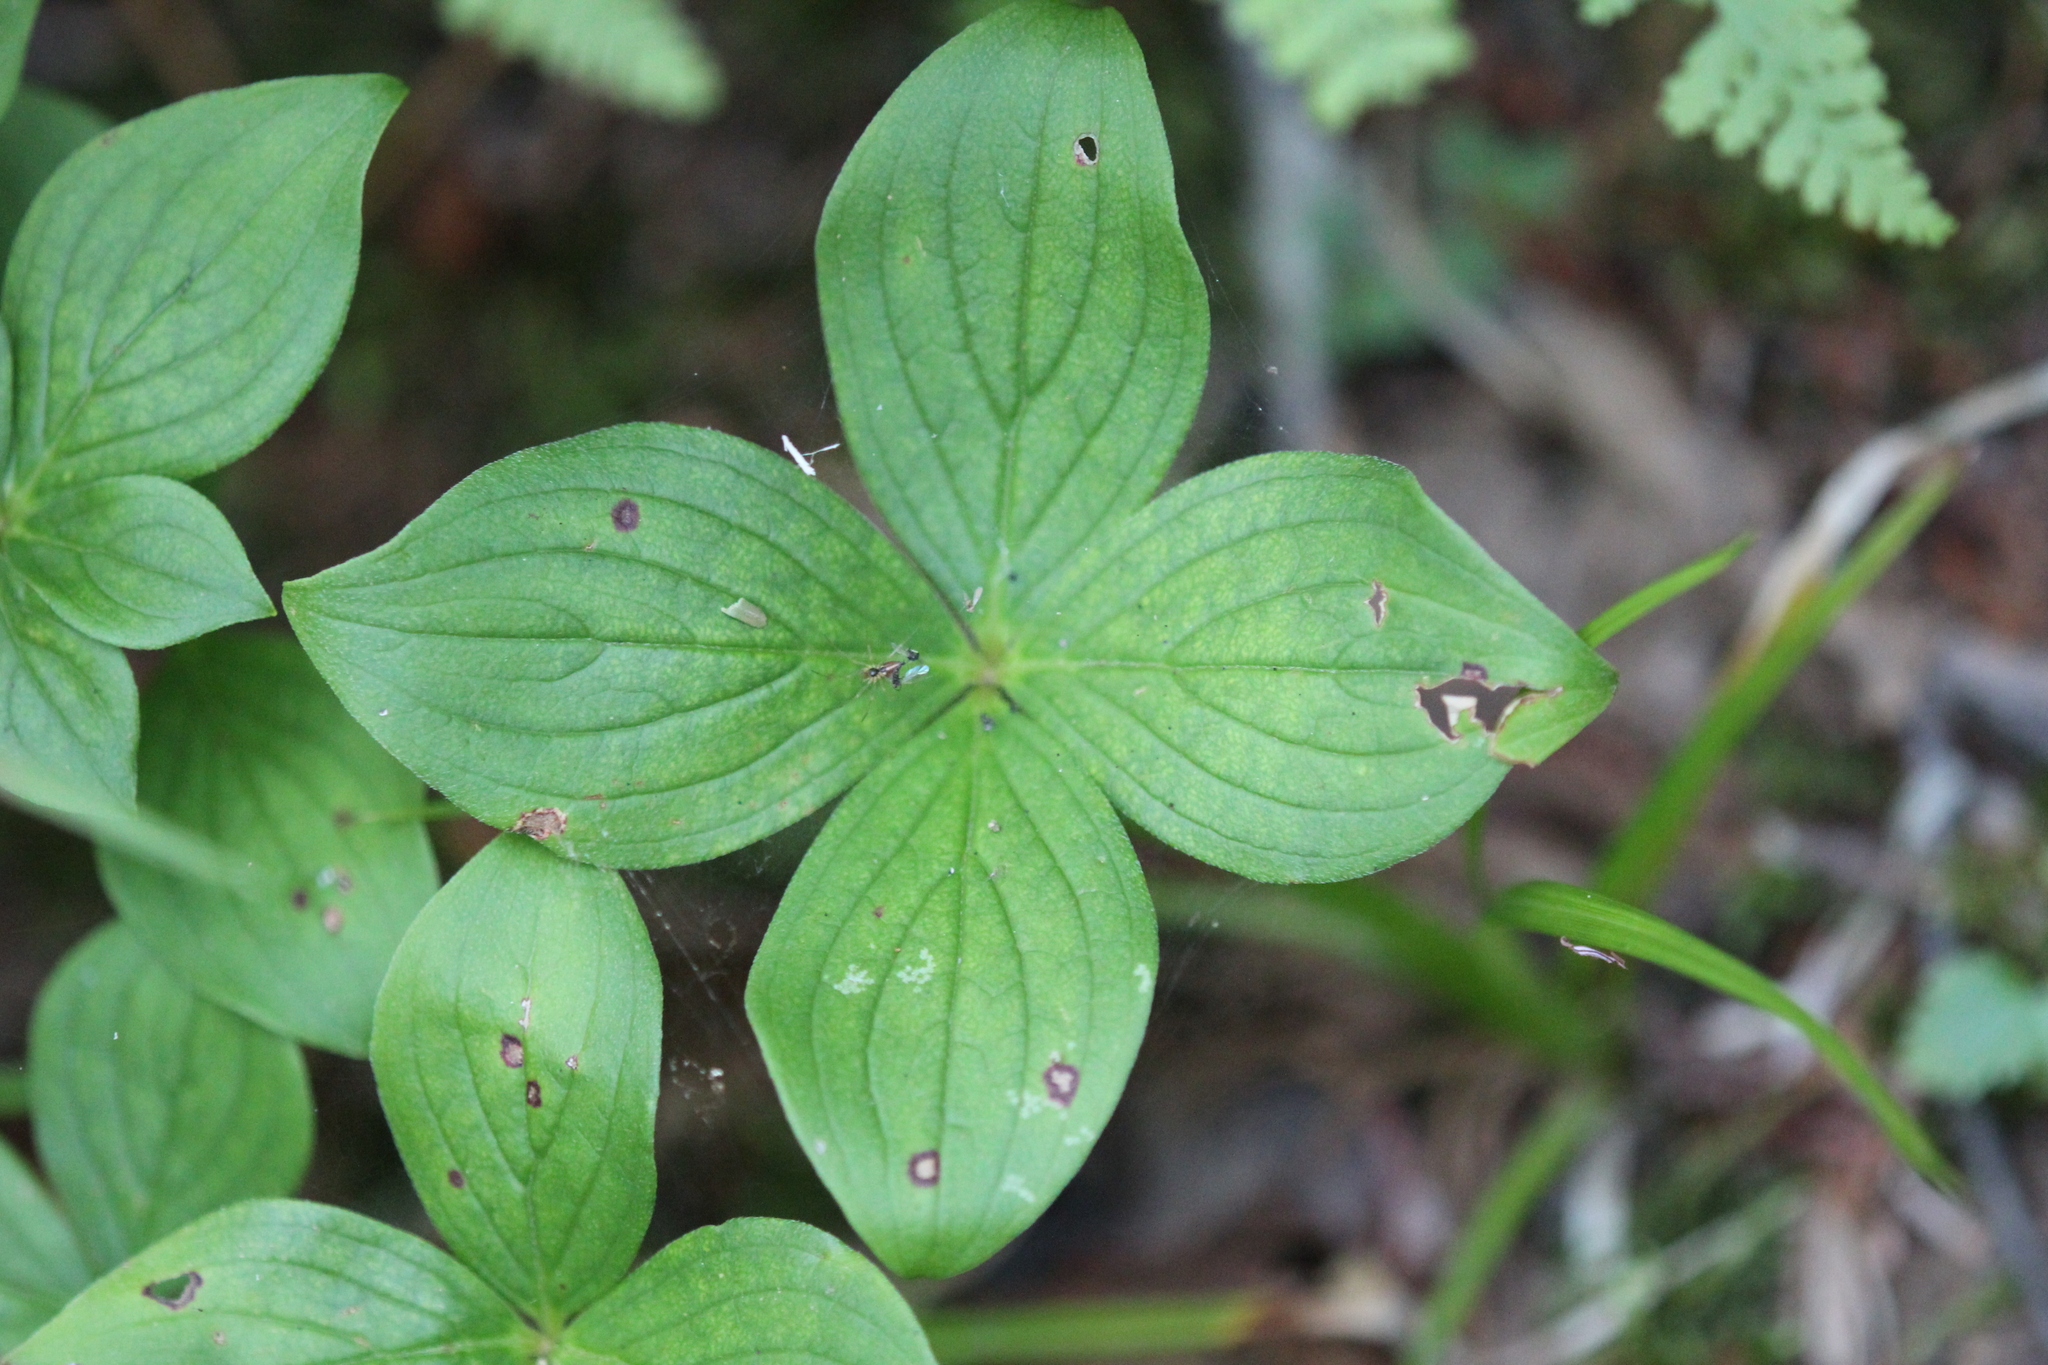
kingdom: Plantae
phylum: Tracheophyta
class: Magnoliopsida
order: Cornales
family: Cornaceae
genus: Cornus
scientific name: Cornus canadensis
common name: Creeping dogwood
